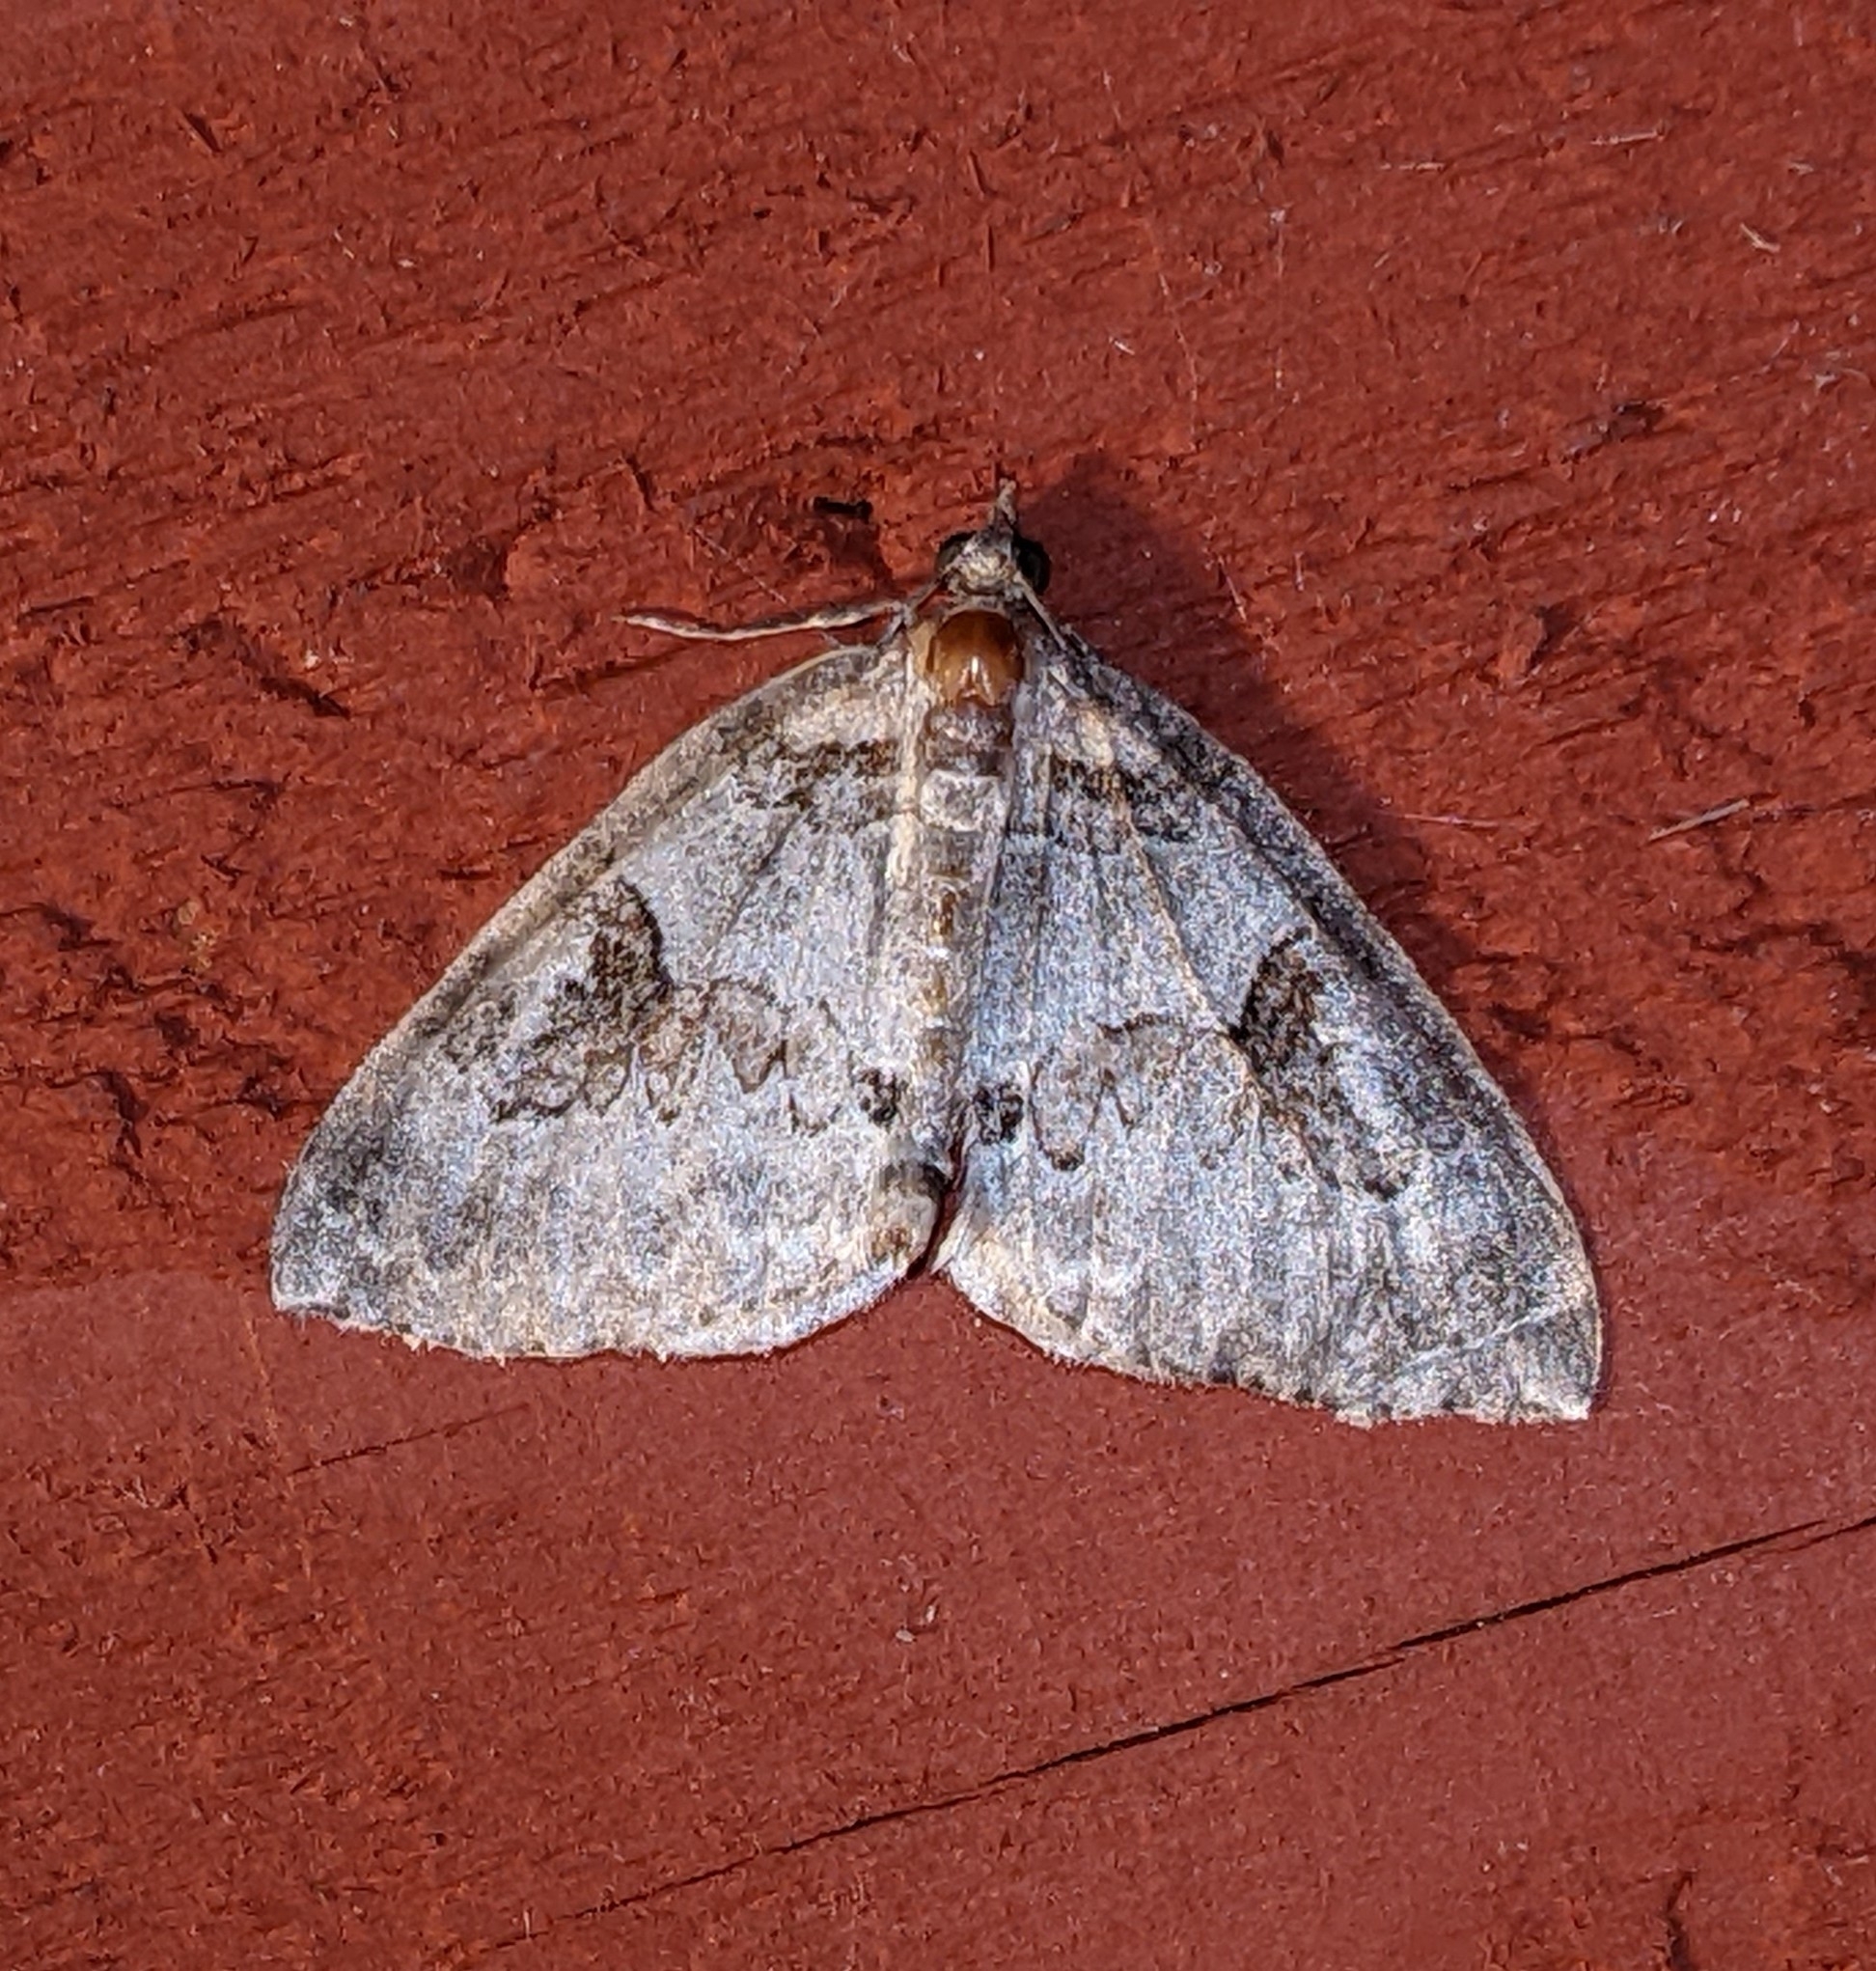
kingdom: Animalia
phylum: Arthropoda
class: Insecta
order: Lepidoptera
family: Geometridae
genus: Plemyria
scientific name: Plemyria georgii
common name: George's carpet moth
